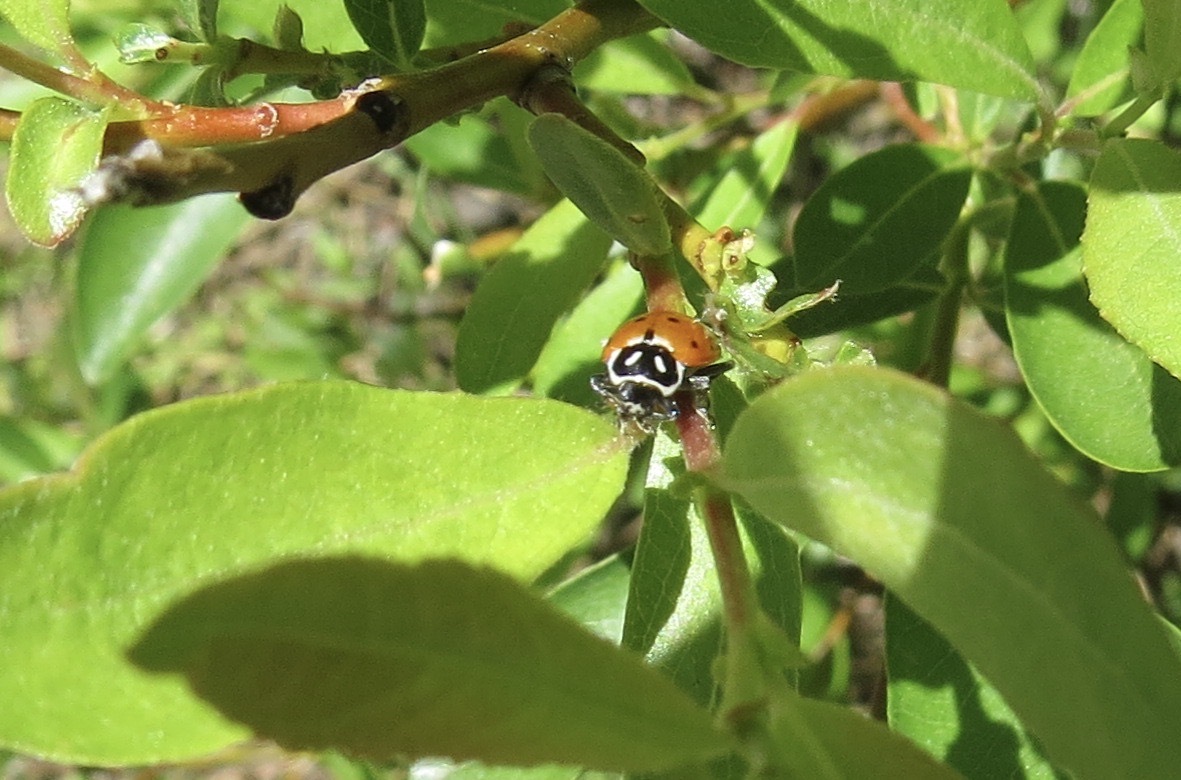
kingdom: Animalia
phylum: Arthropoda
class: Insecta
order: Coleoptera
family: Coccinellidae
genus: Hippodamia
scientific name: Hippodamia convergens
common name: Convergent lady beetle
